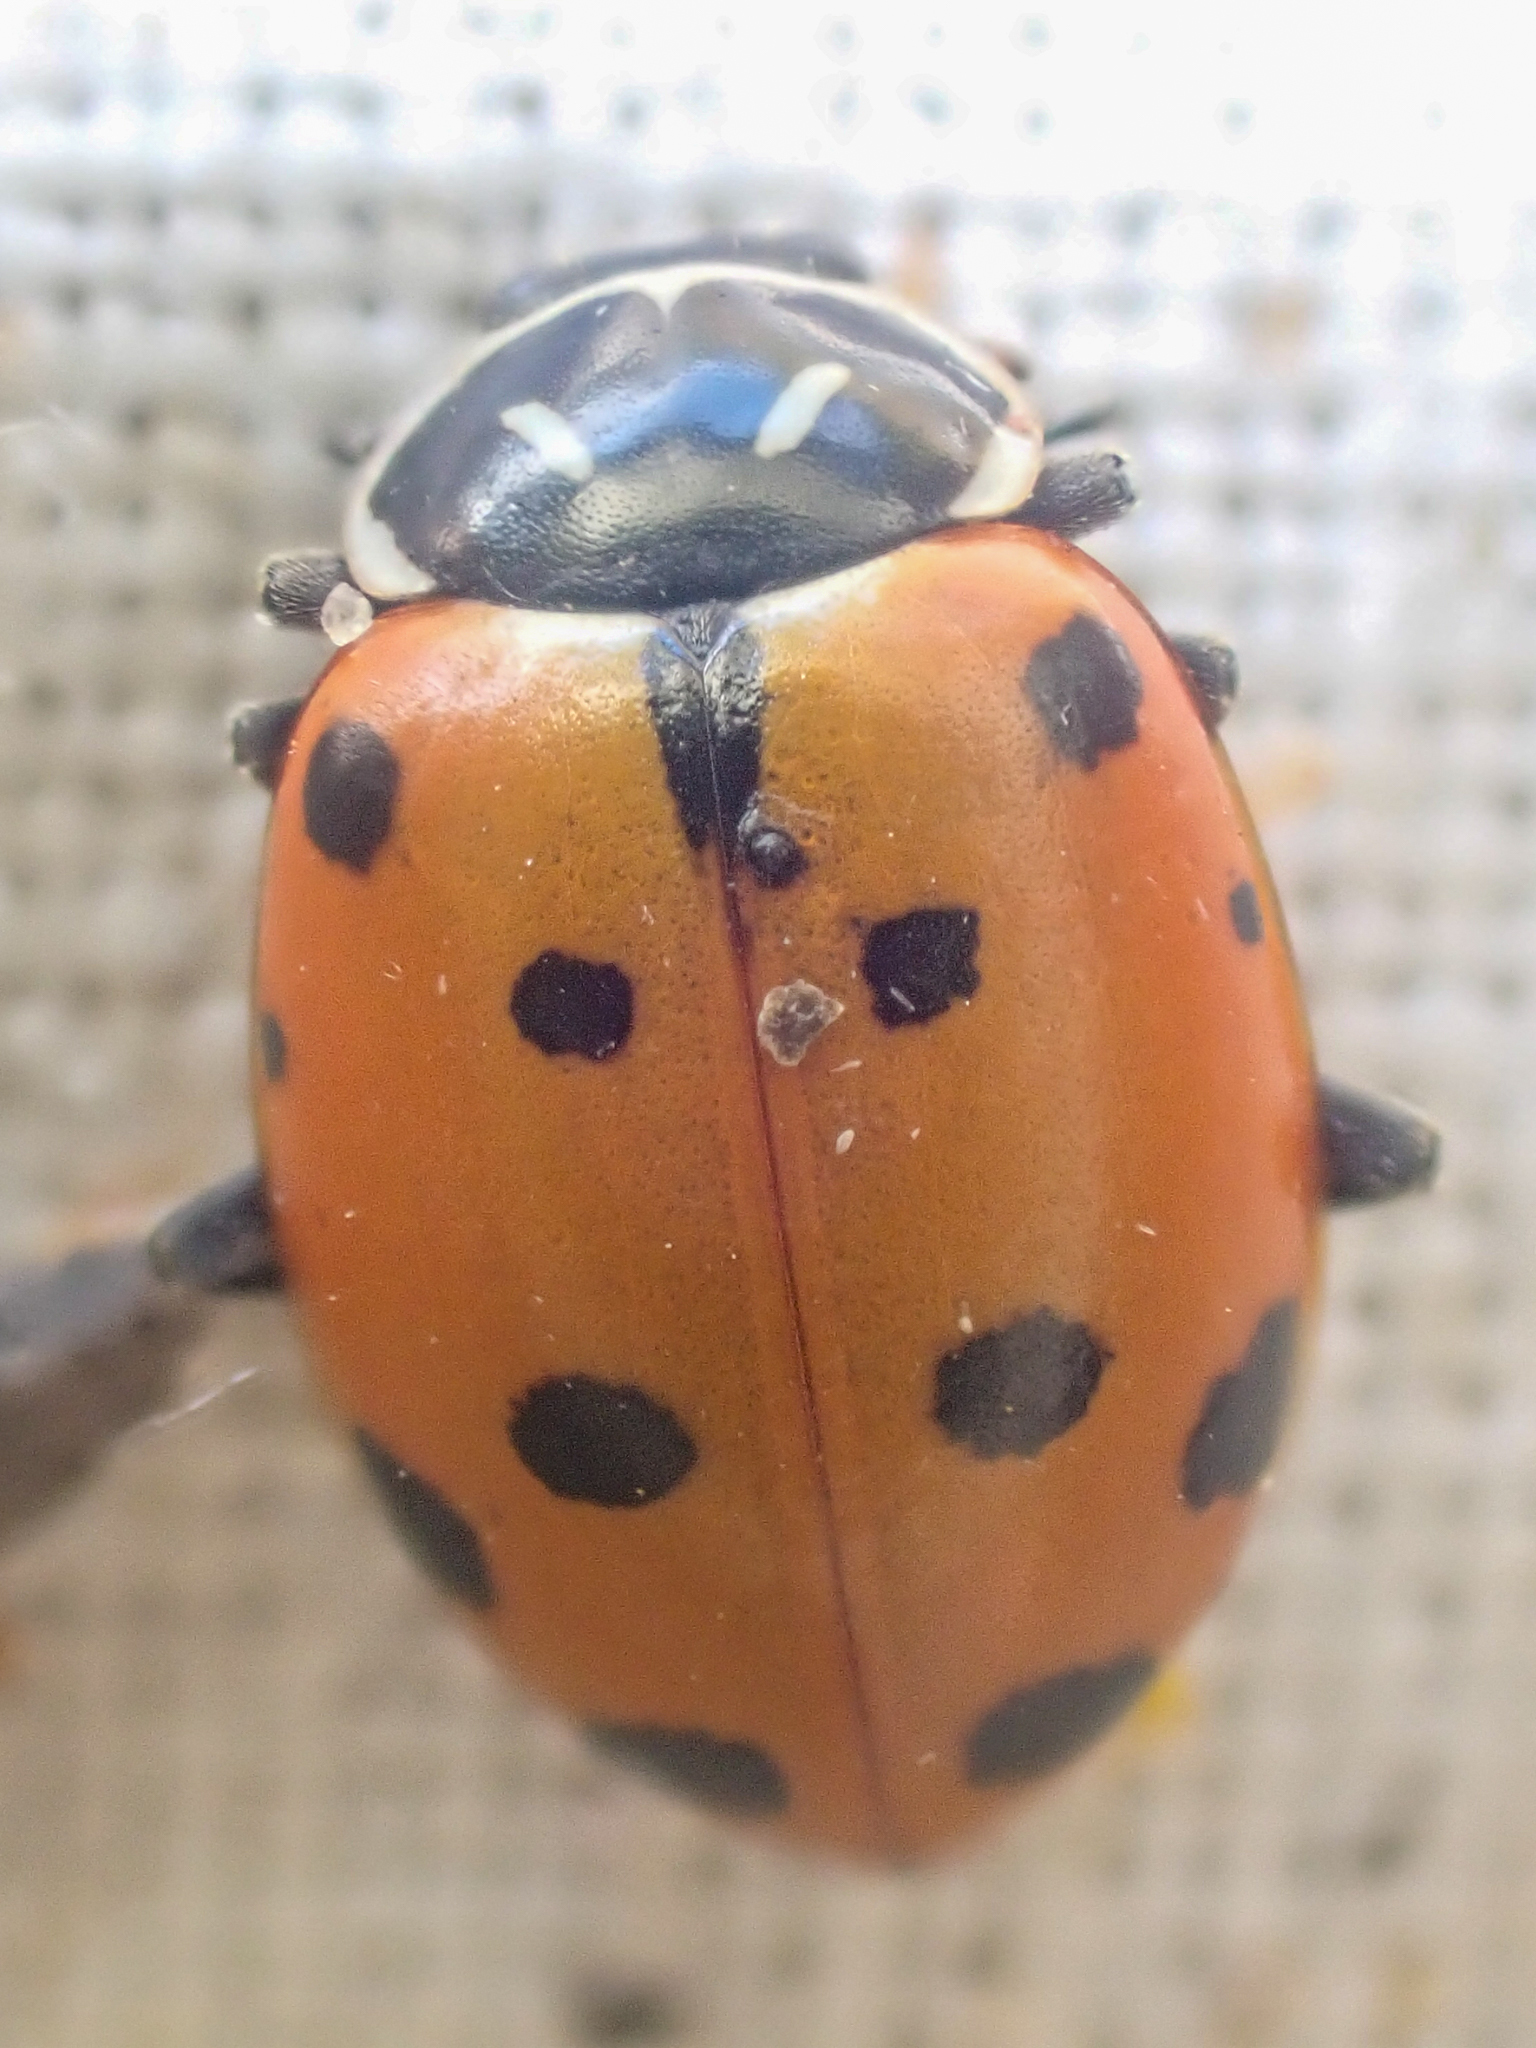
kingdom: Animalia
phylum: Arthropoda
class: Insecta
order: Coleoptera
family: Coccinellidae
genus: Hippodamia
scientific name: Hippodamia convergens
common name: Convergent lady beetle
